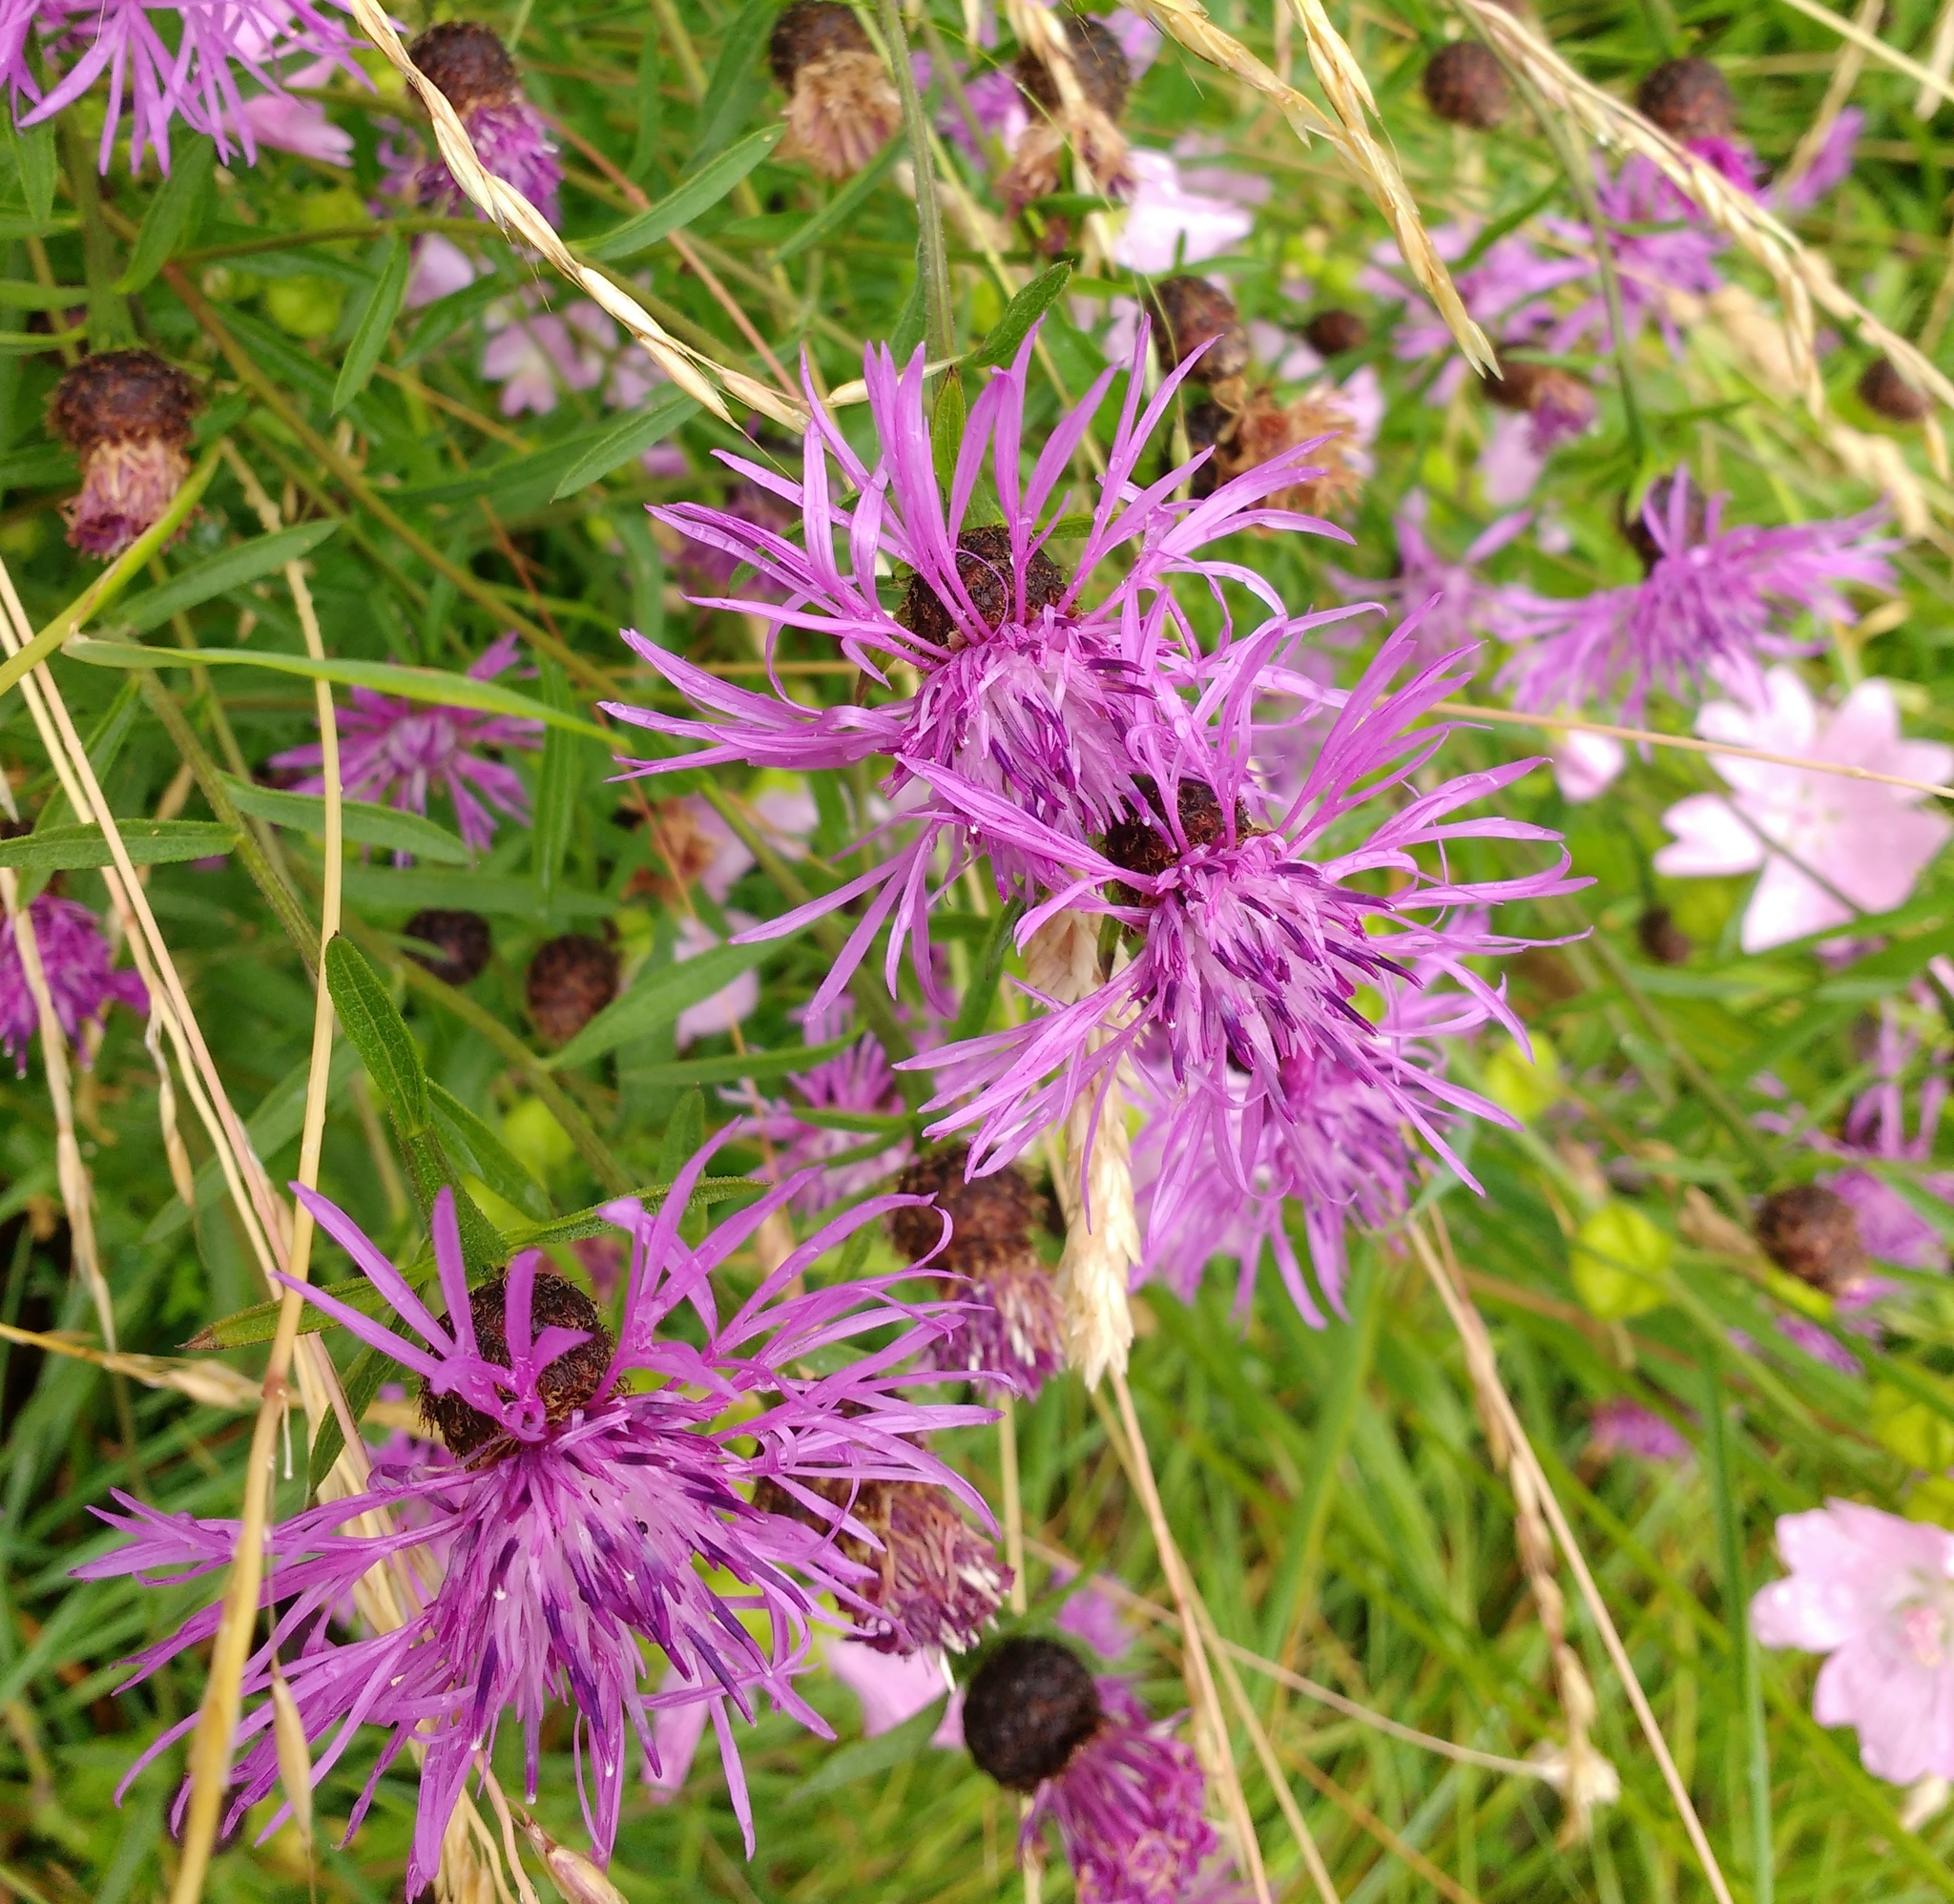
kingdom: Plantae
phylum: Tracheophyta
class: Magnoliopsida
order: Asterales
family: Asteraceae
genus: Centaurea
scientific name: Centaurea scabiosa
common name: Greater knapweed
